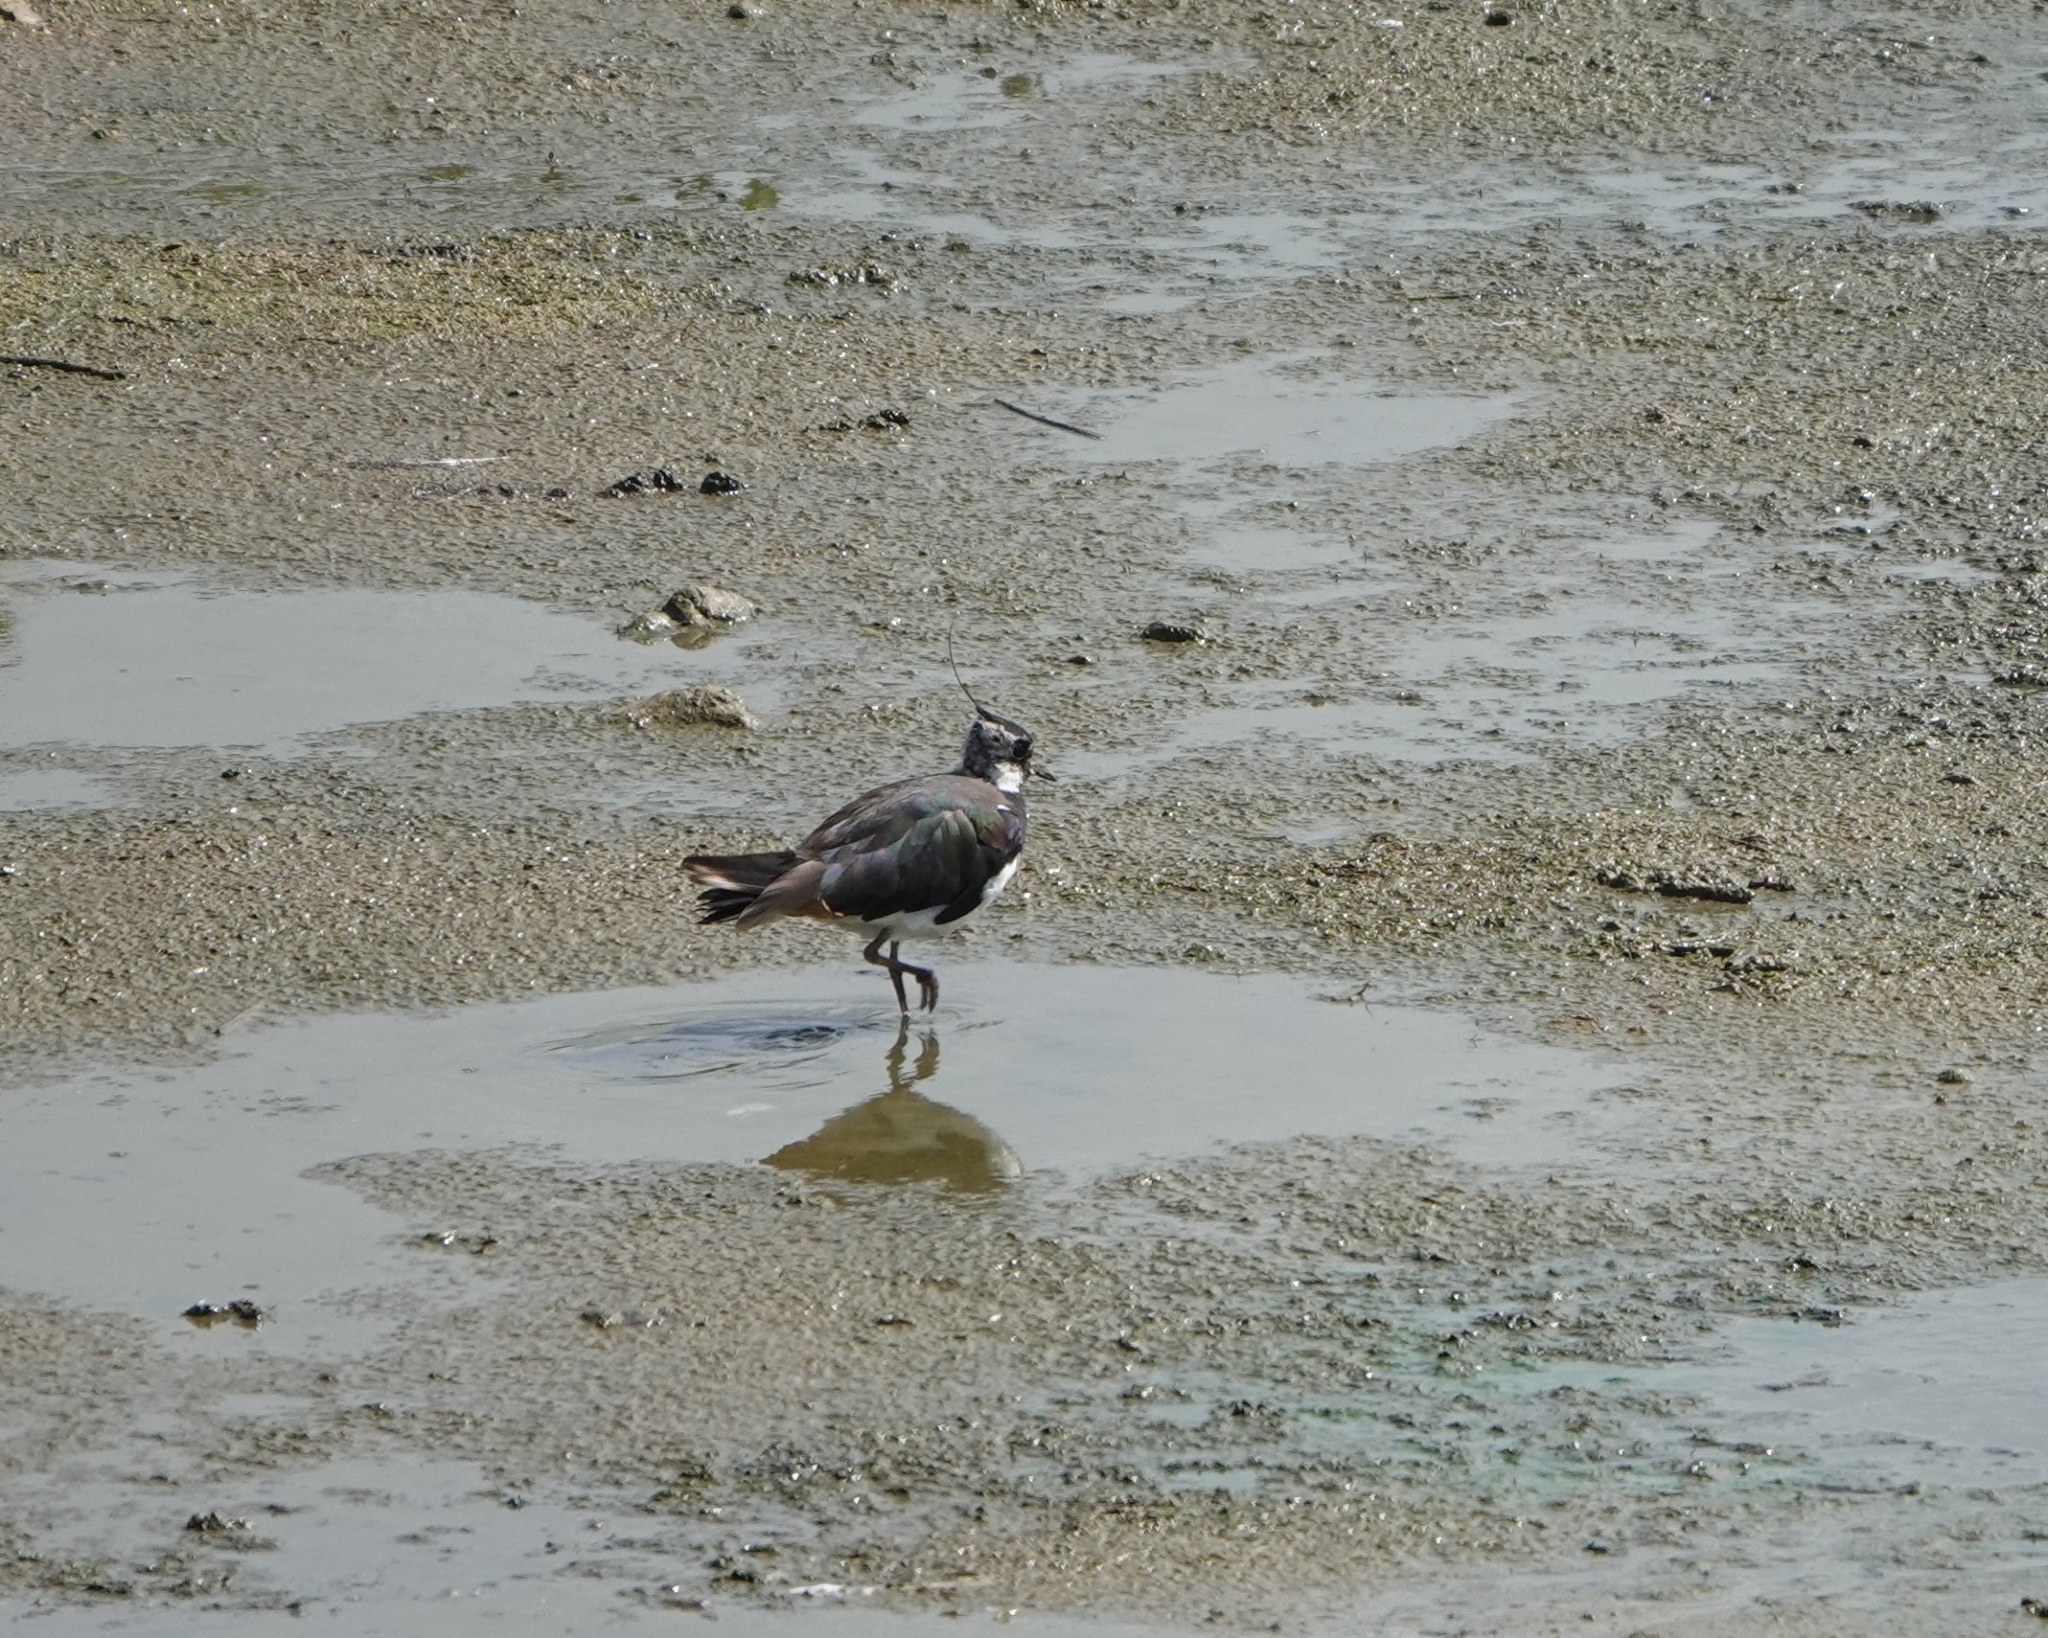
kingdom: Animalia
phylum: Chordata
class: Aves
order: Charadriiformes
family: Charadriidae
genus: Vanellus
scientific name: Vanellus vanellus
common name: Northern lapwing
